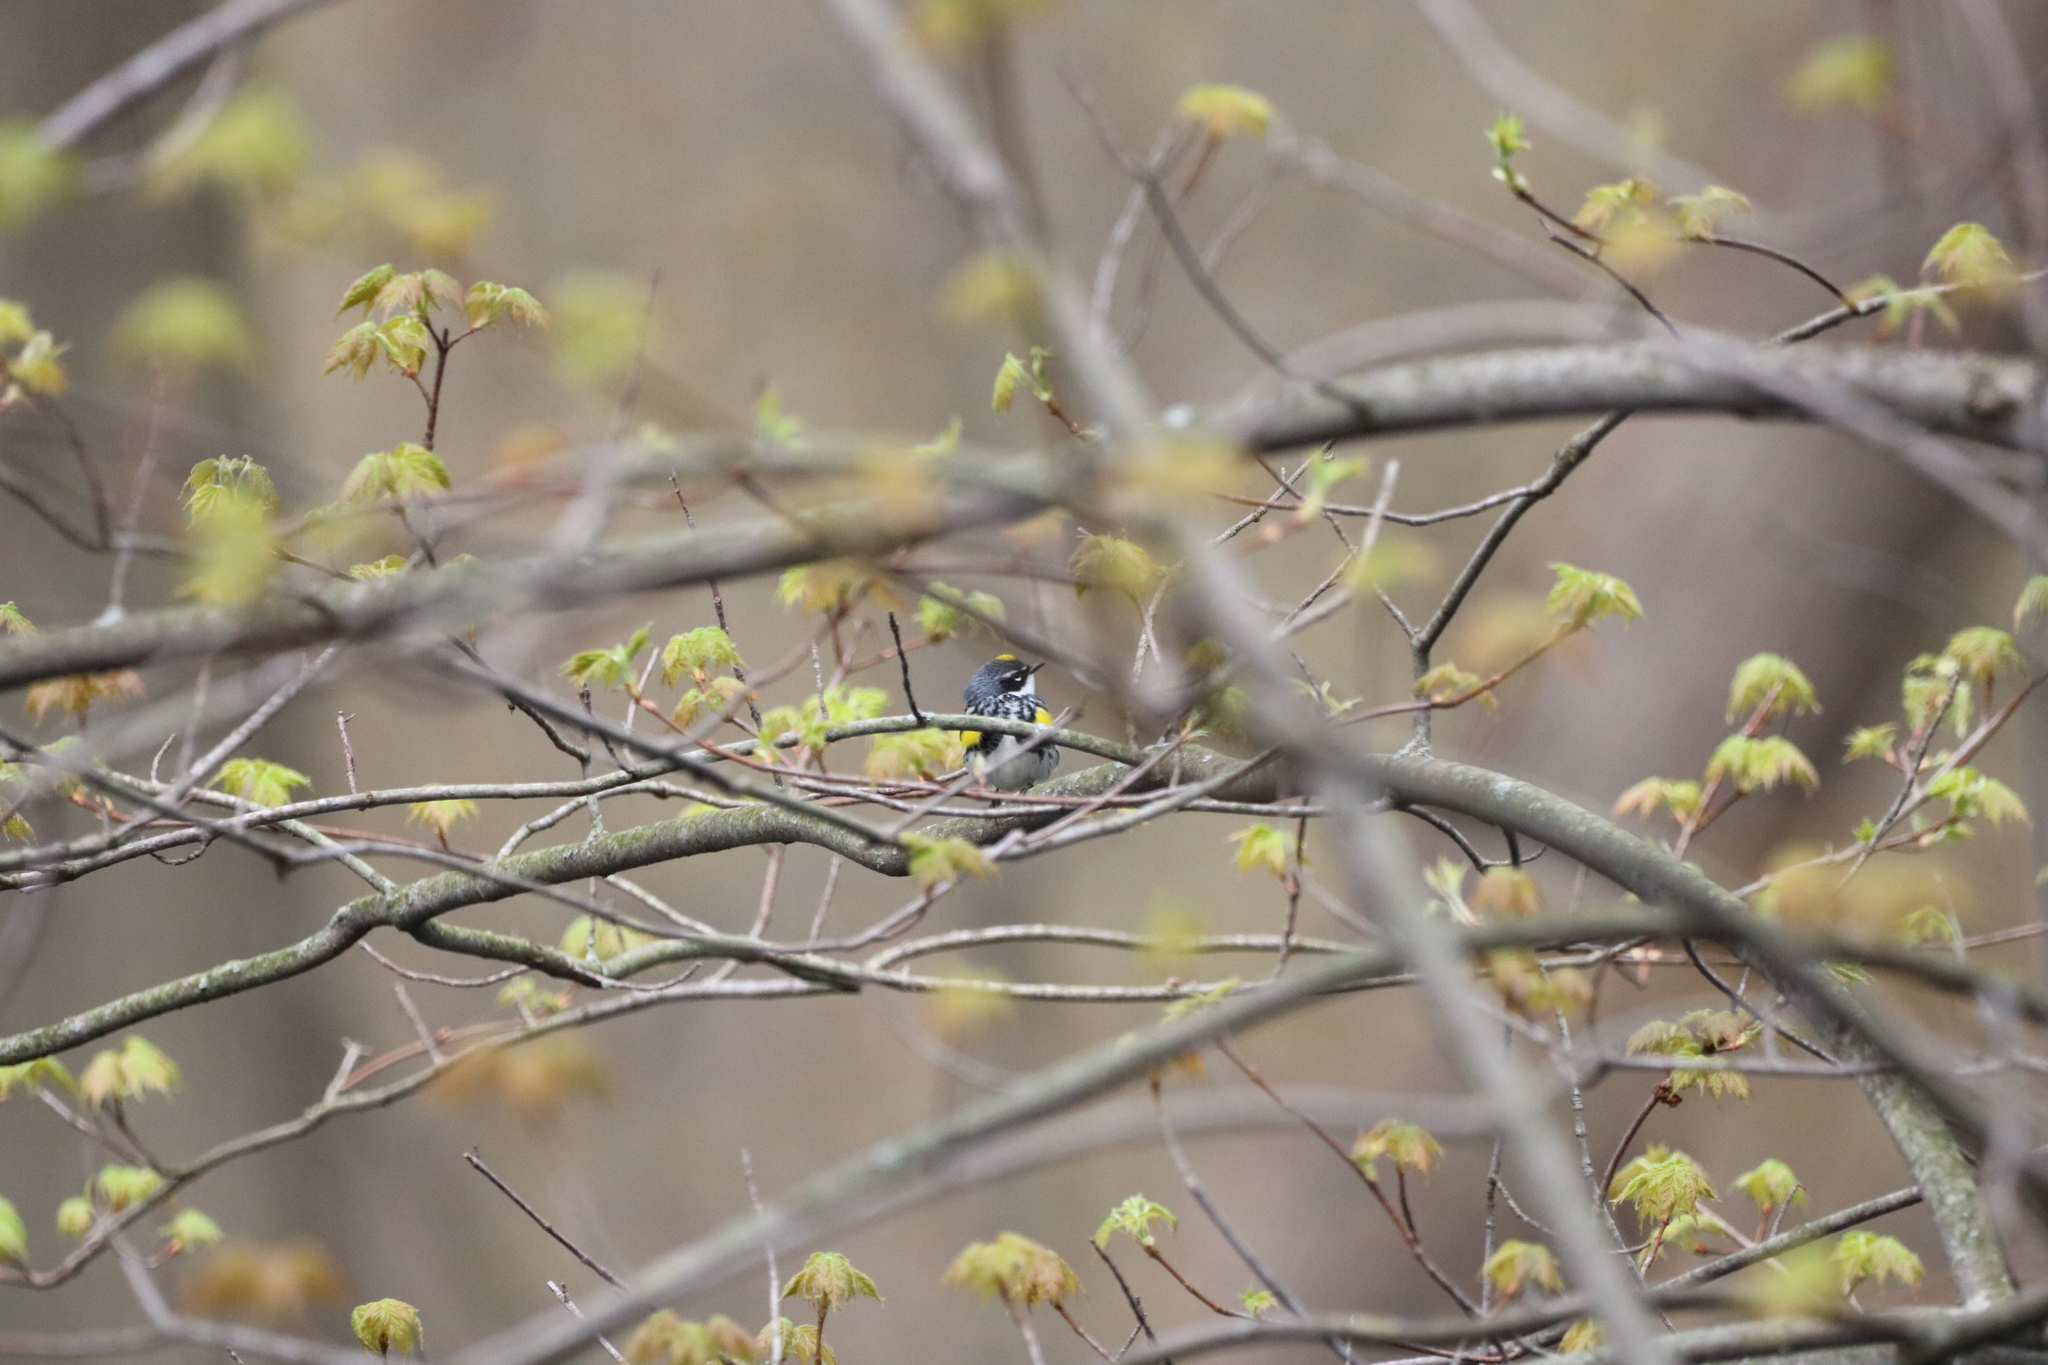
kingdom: Animalia
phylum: Chordata
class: Aves
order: Passeriformes
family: Parulidae
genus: Setophaga
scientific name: Setophaga coronata
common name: Myrtle warbler
